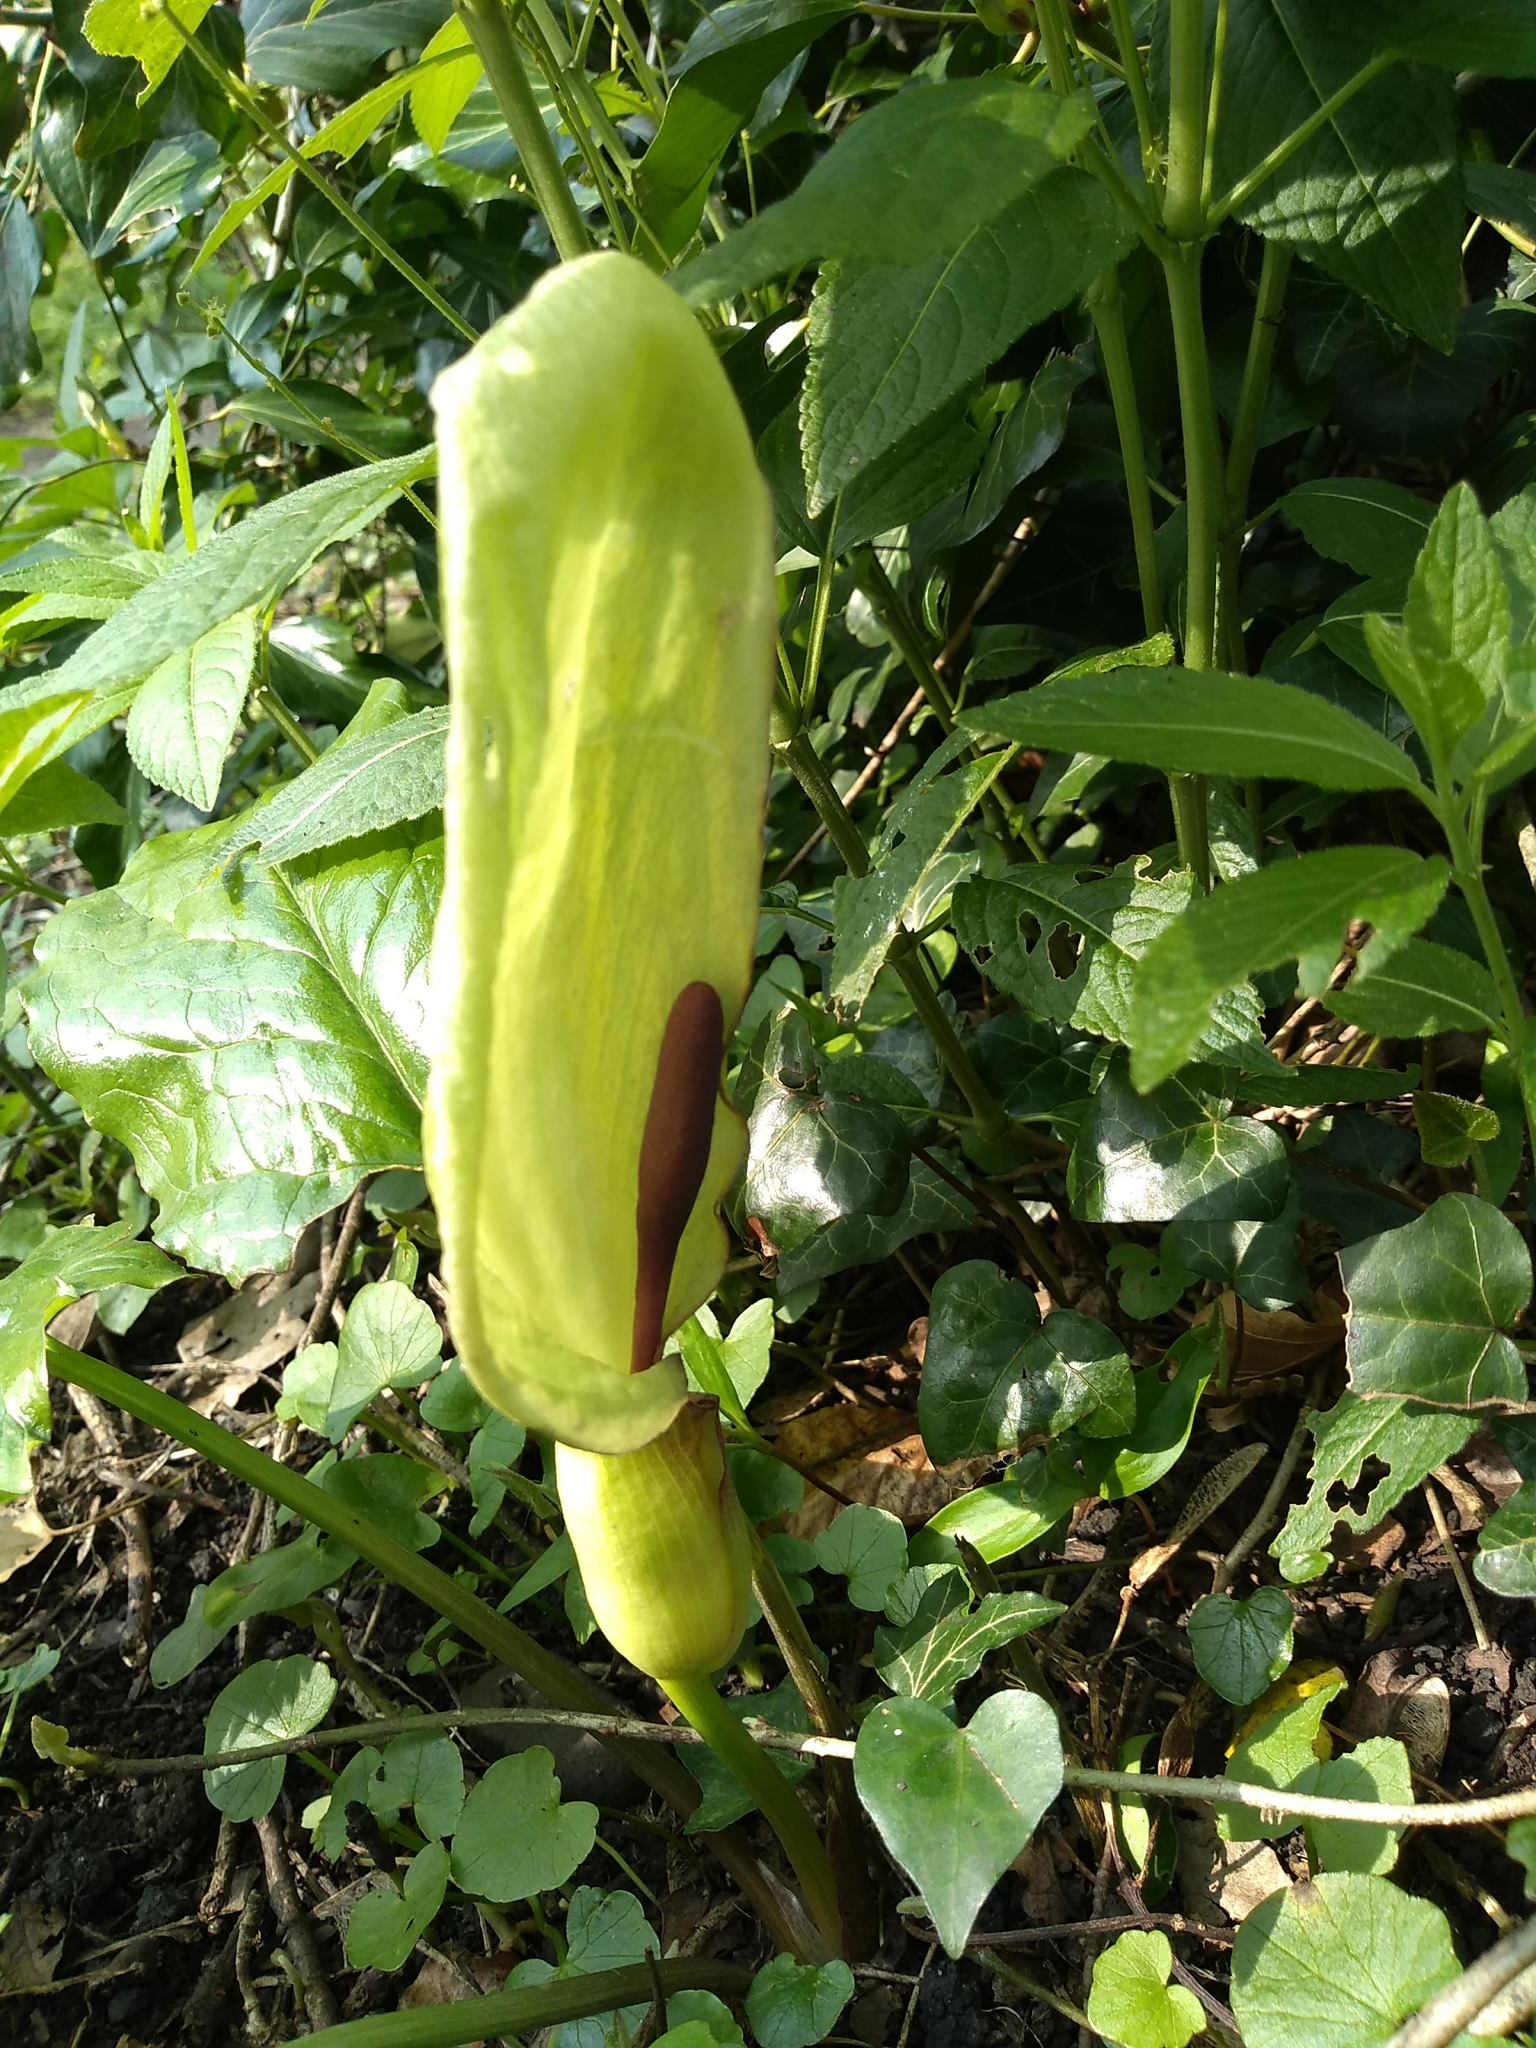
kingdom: Plantae
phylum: Tracheophyta
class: Liliopsida
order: Alismatales
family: Araceae
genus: Arum
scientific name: Arum maculatum
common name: Lords-and-ladies
